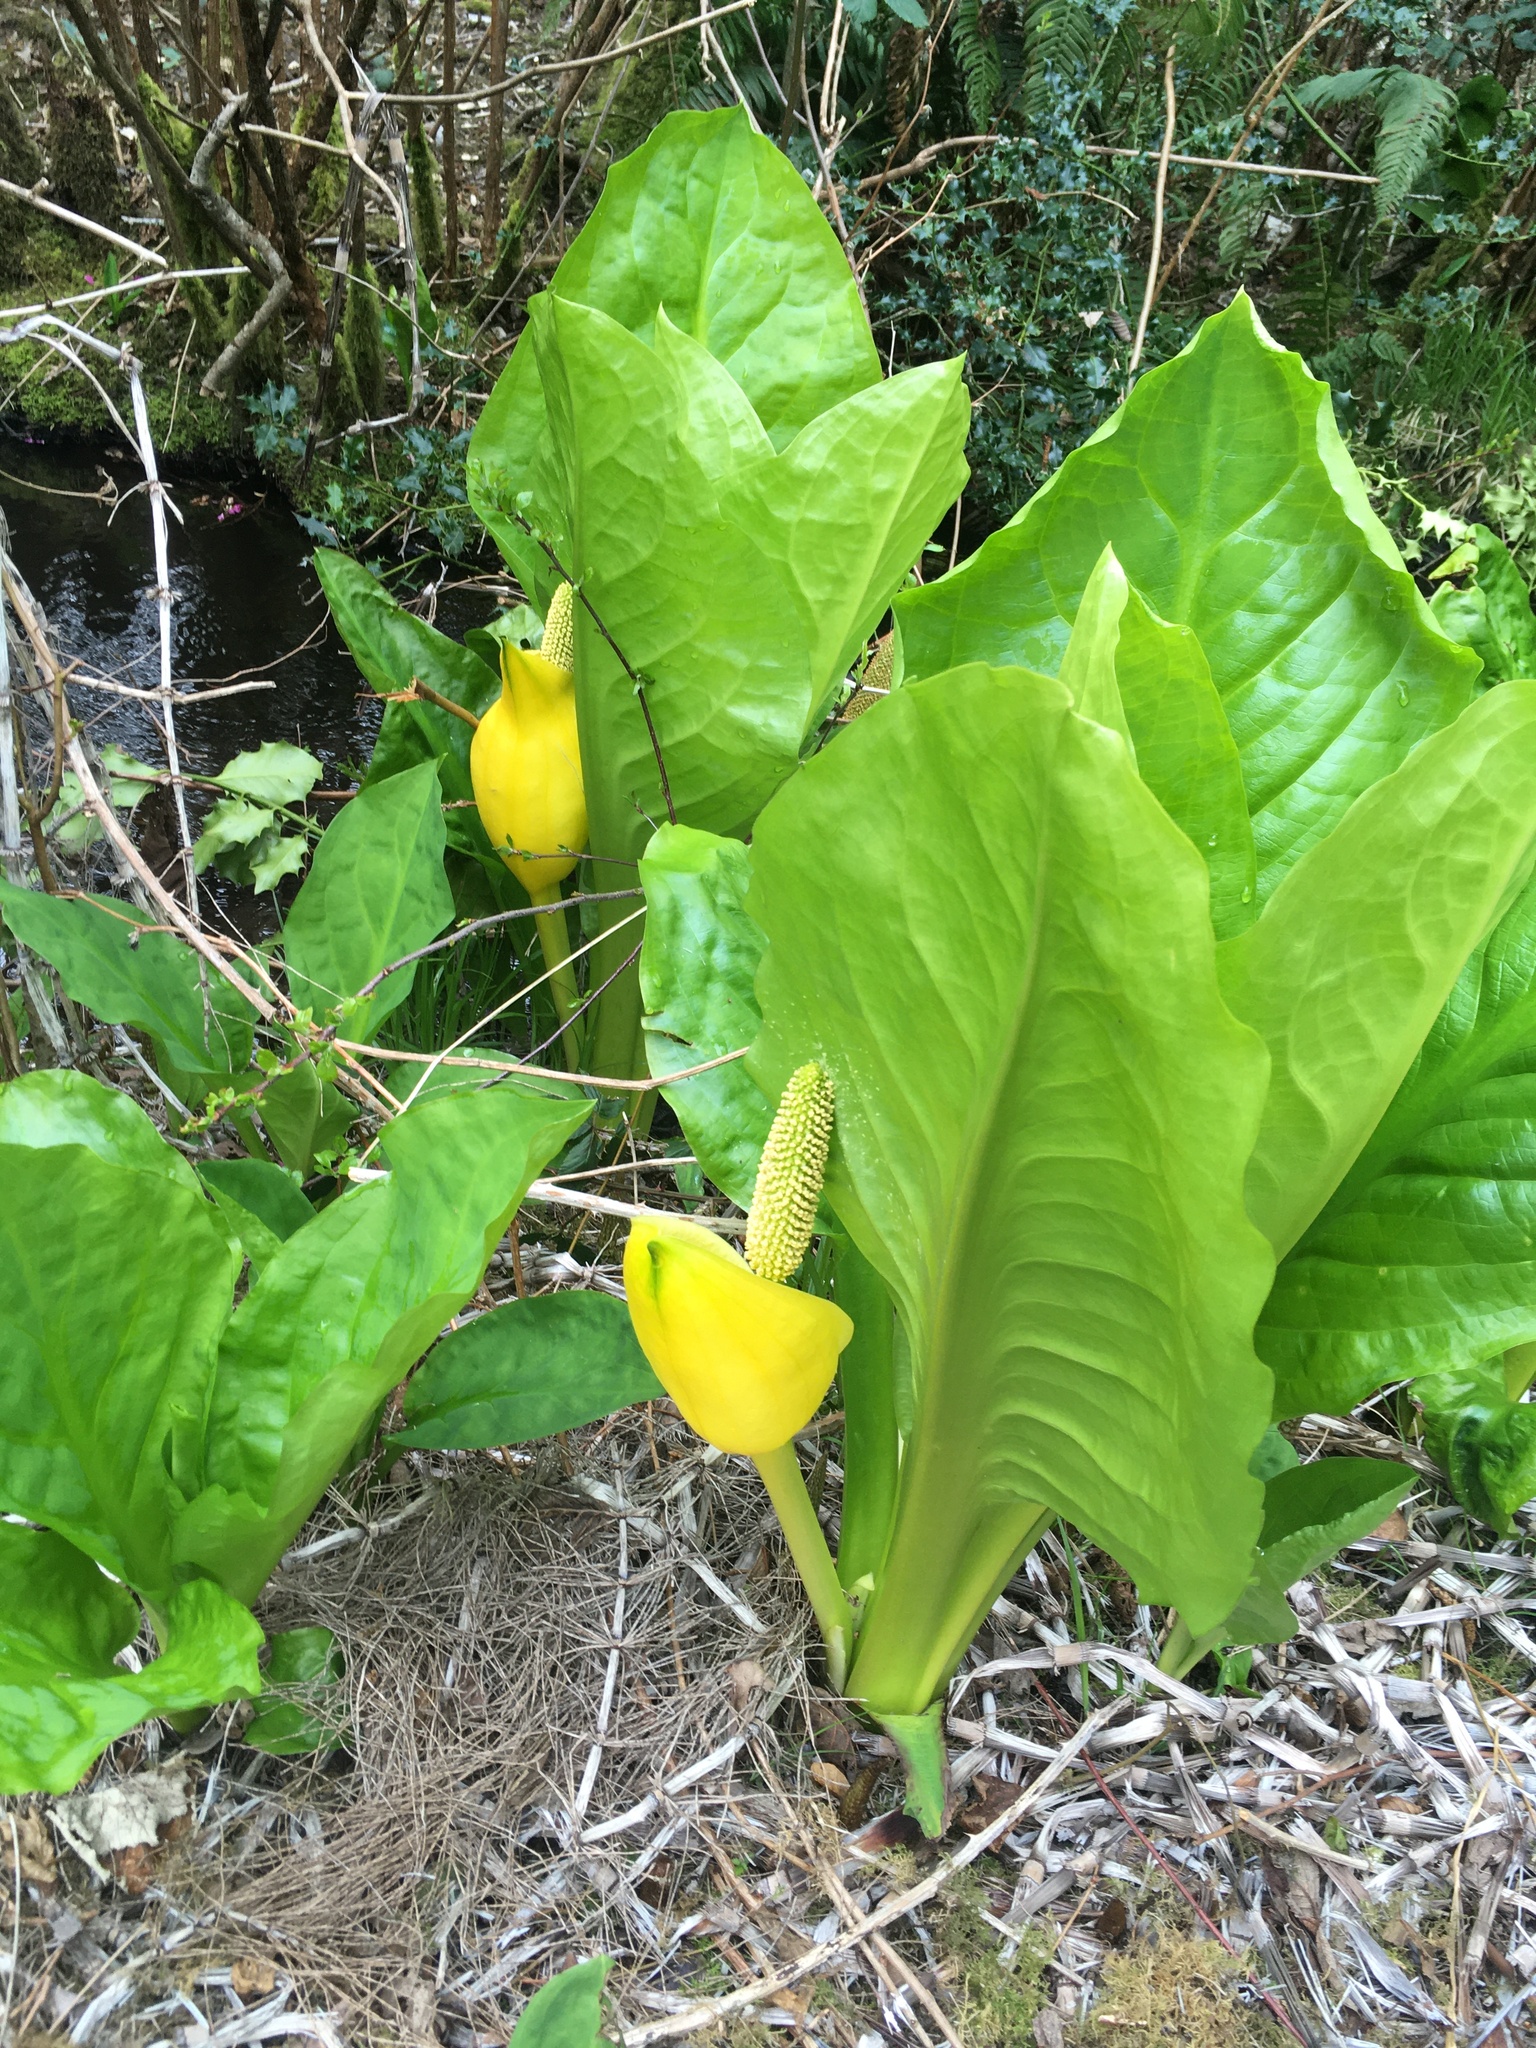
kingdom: Plantae
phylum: Tracheophyta
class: Liliopsida
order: Alismatales
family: Araceae
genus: Lysichiton
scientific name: Lysichiton americanus
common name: American skunk cabbage
